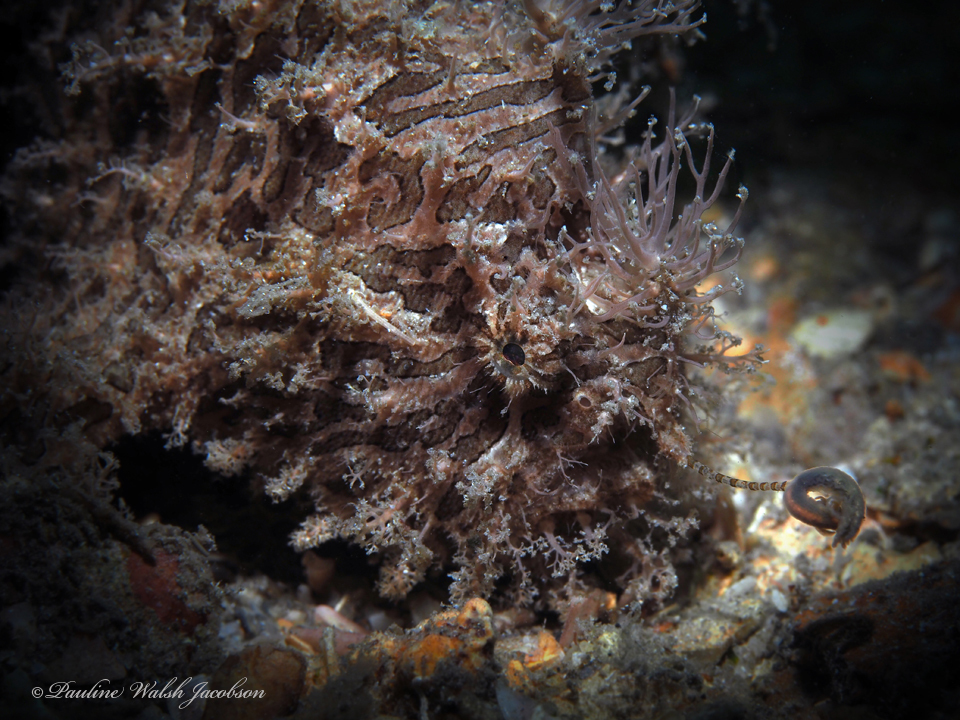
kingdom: Animalia
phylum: Chordata
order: Lophiiformes
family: Antennariidae
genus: Antennarius
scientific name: Antennarius striatus
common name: Striated frogfish
